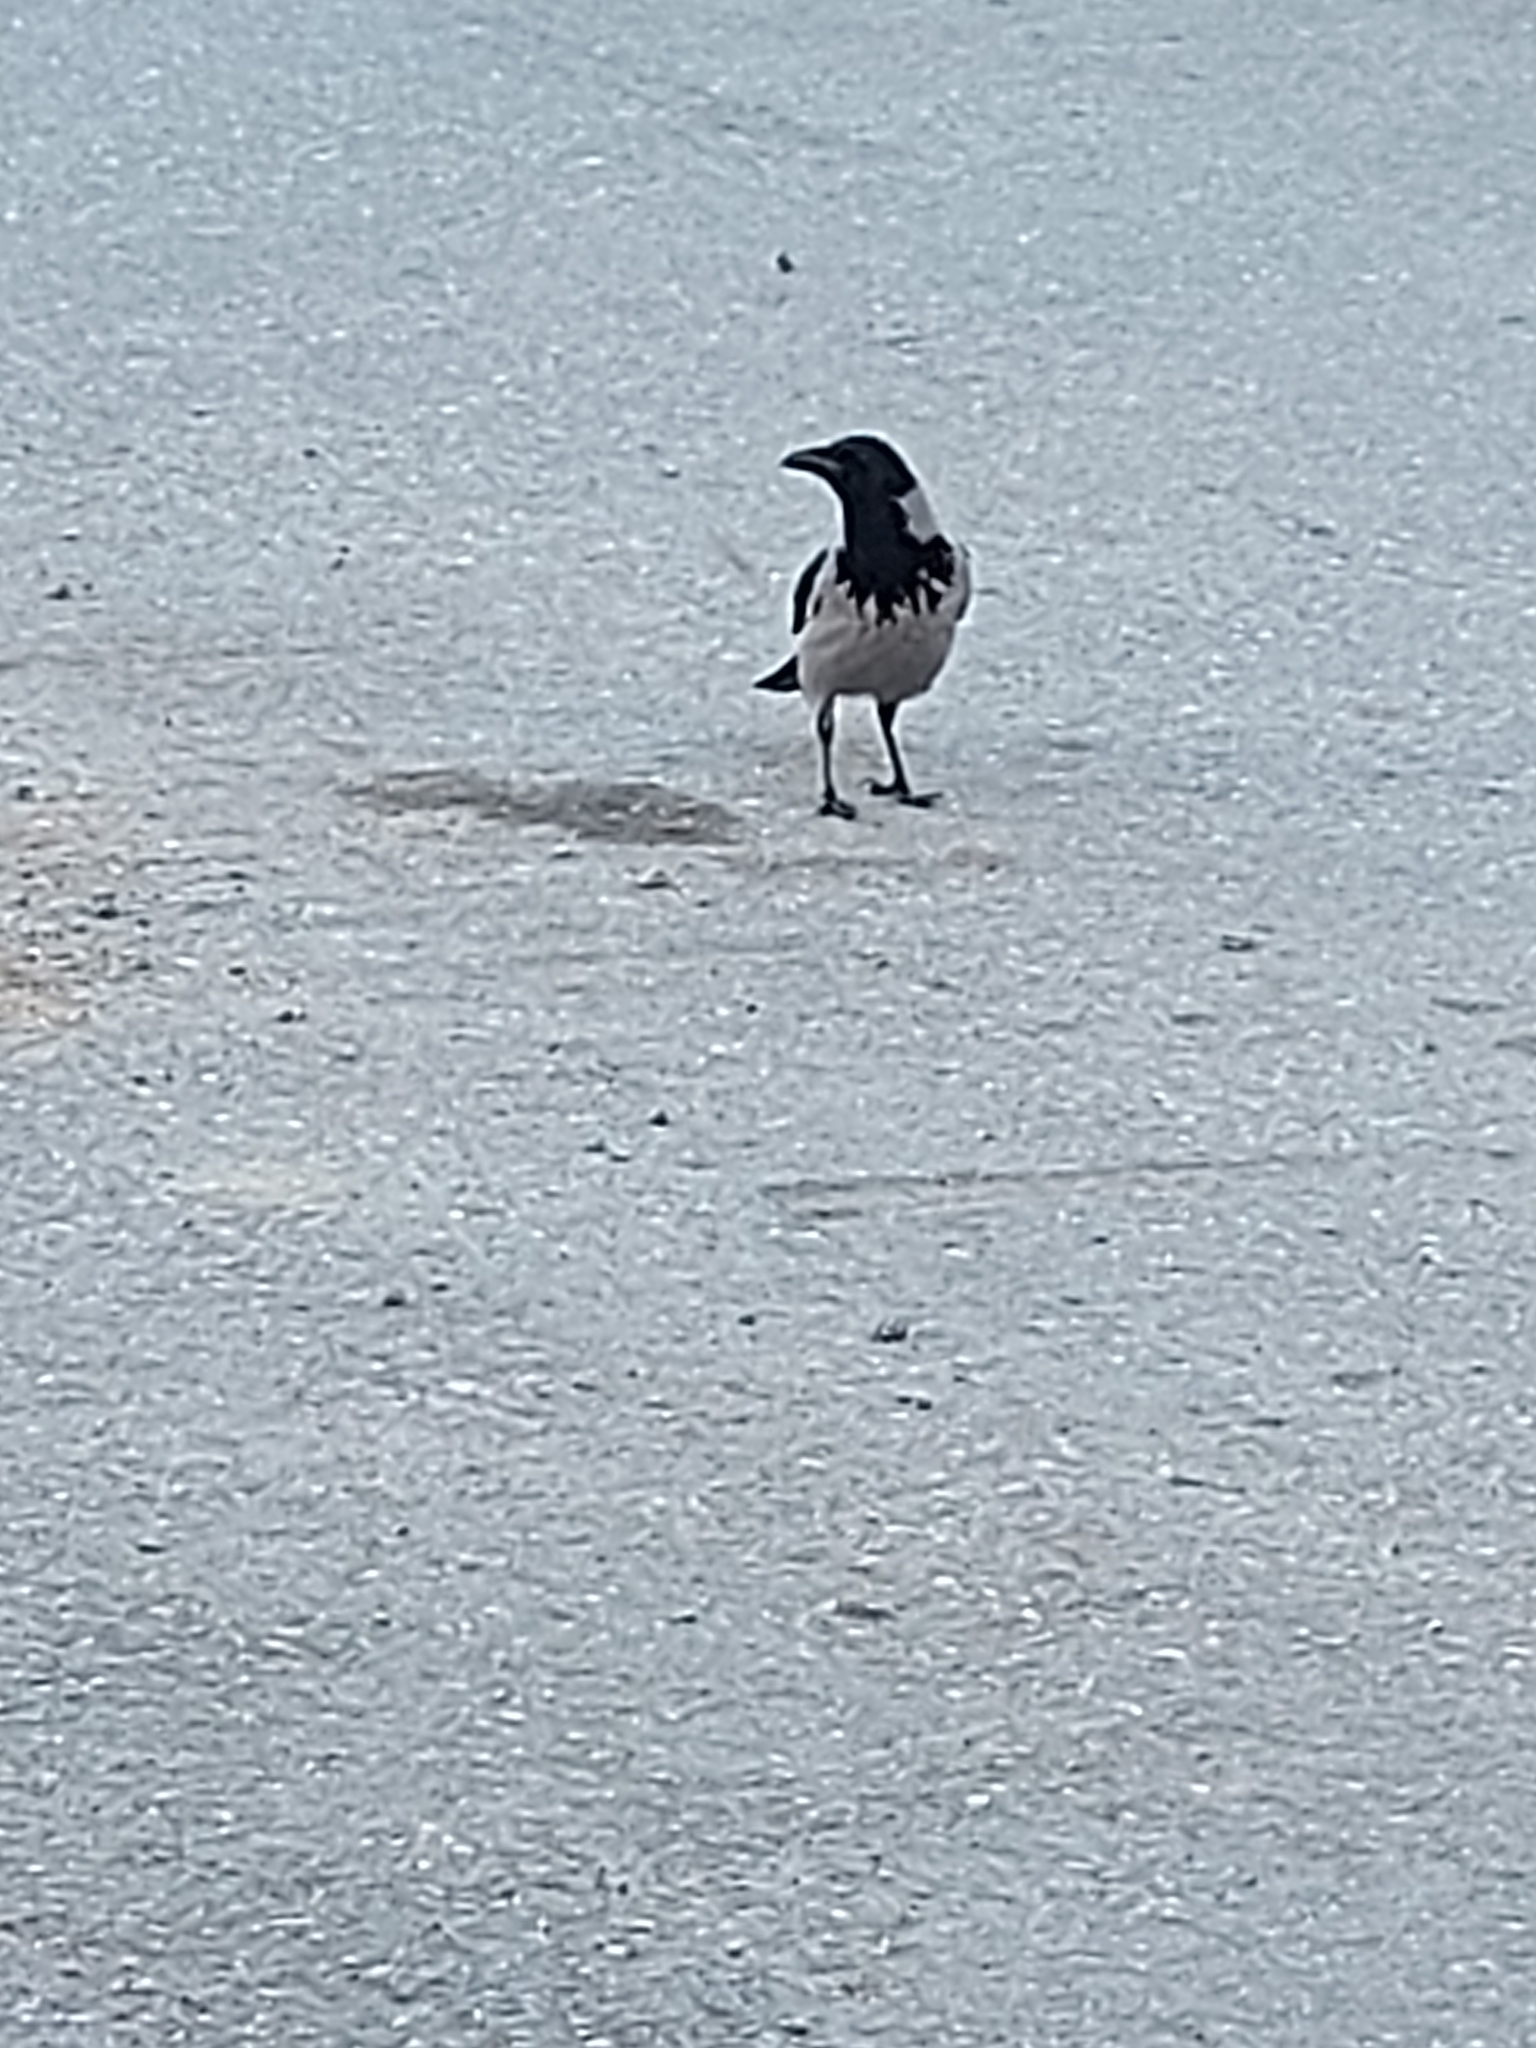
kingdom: Animalia
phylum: Chordata
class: Aves
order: Passeriformes
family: Corvidae
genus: Corvus
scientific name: Corvus cornix
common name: Hooded crow
